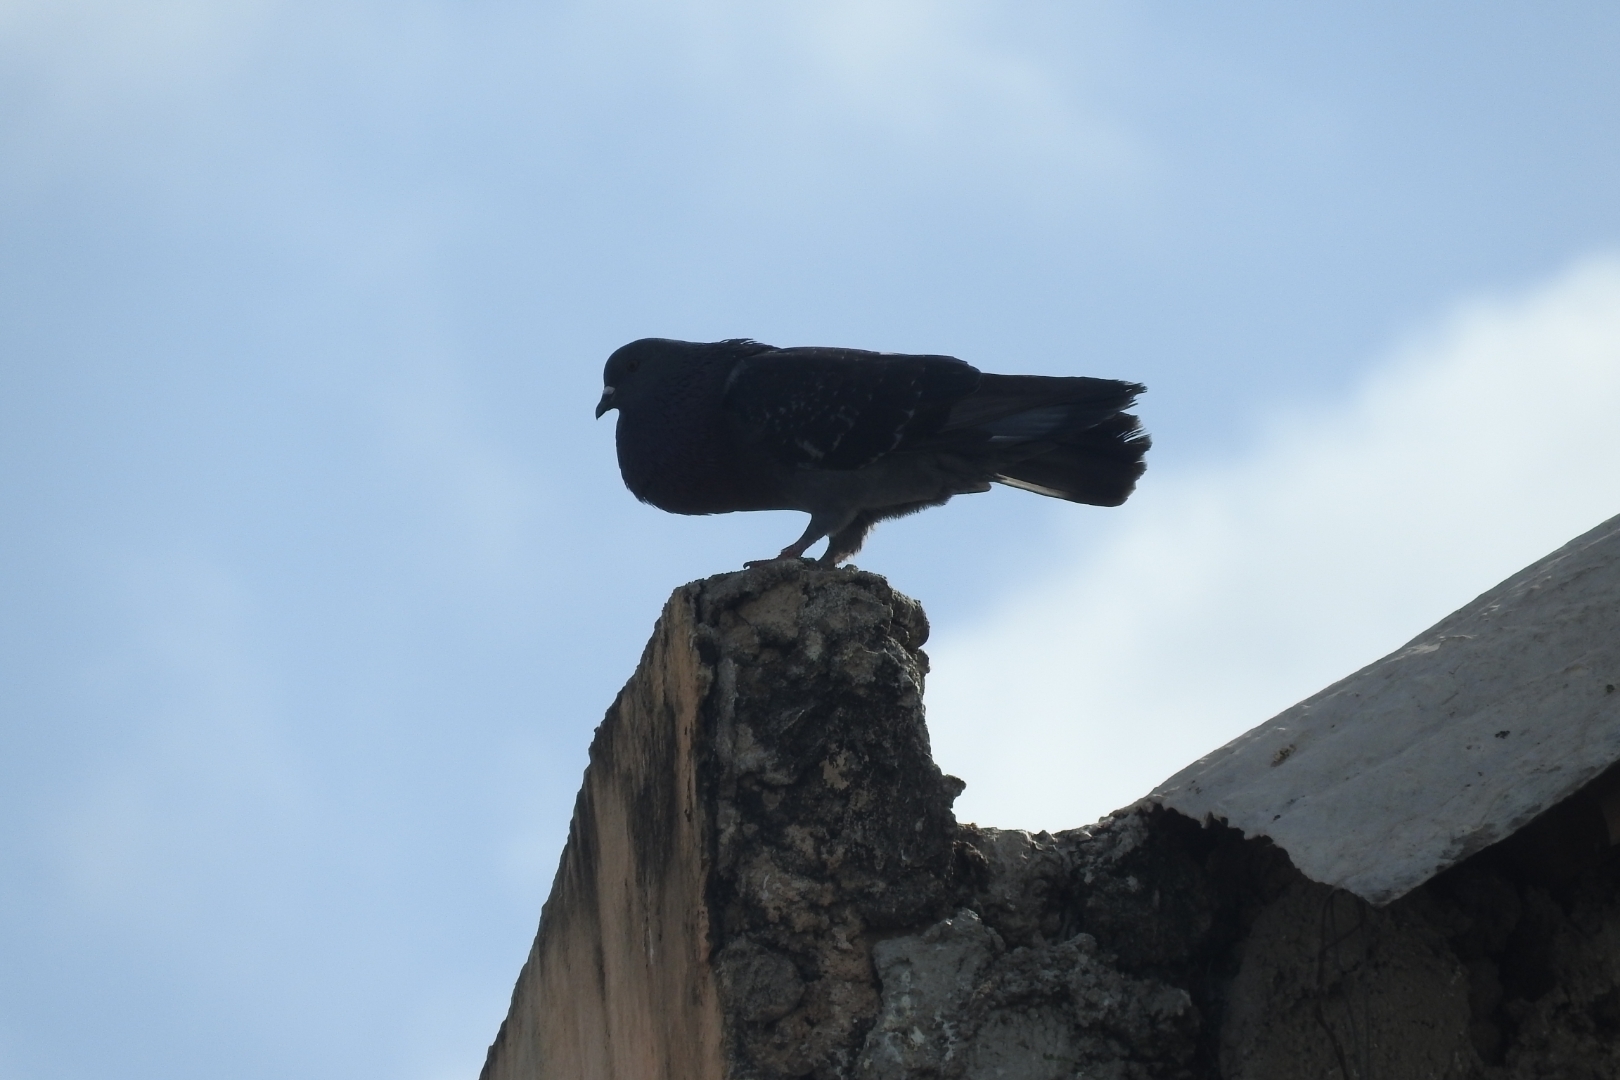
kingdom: Animalia
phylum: Chordata
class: Aves
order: Columbiformes
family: Columbidae
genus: Columba
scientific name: Columba livia
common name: Rock pigeon
